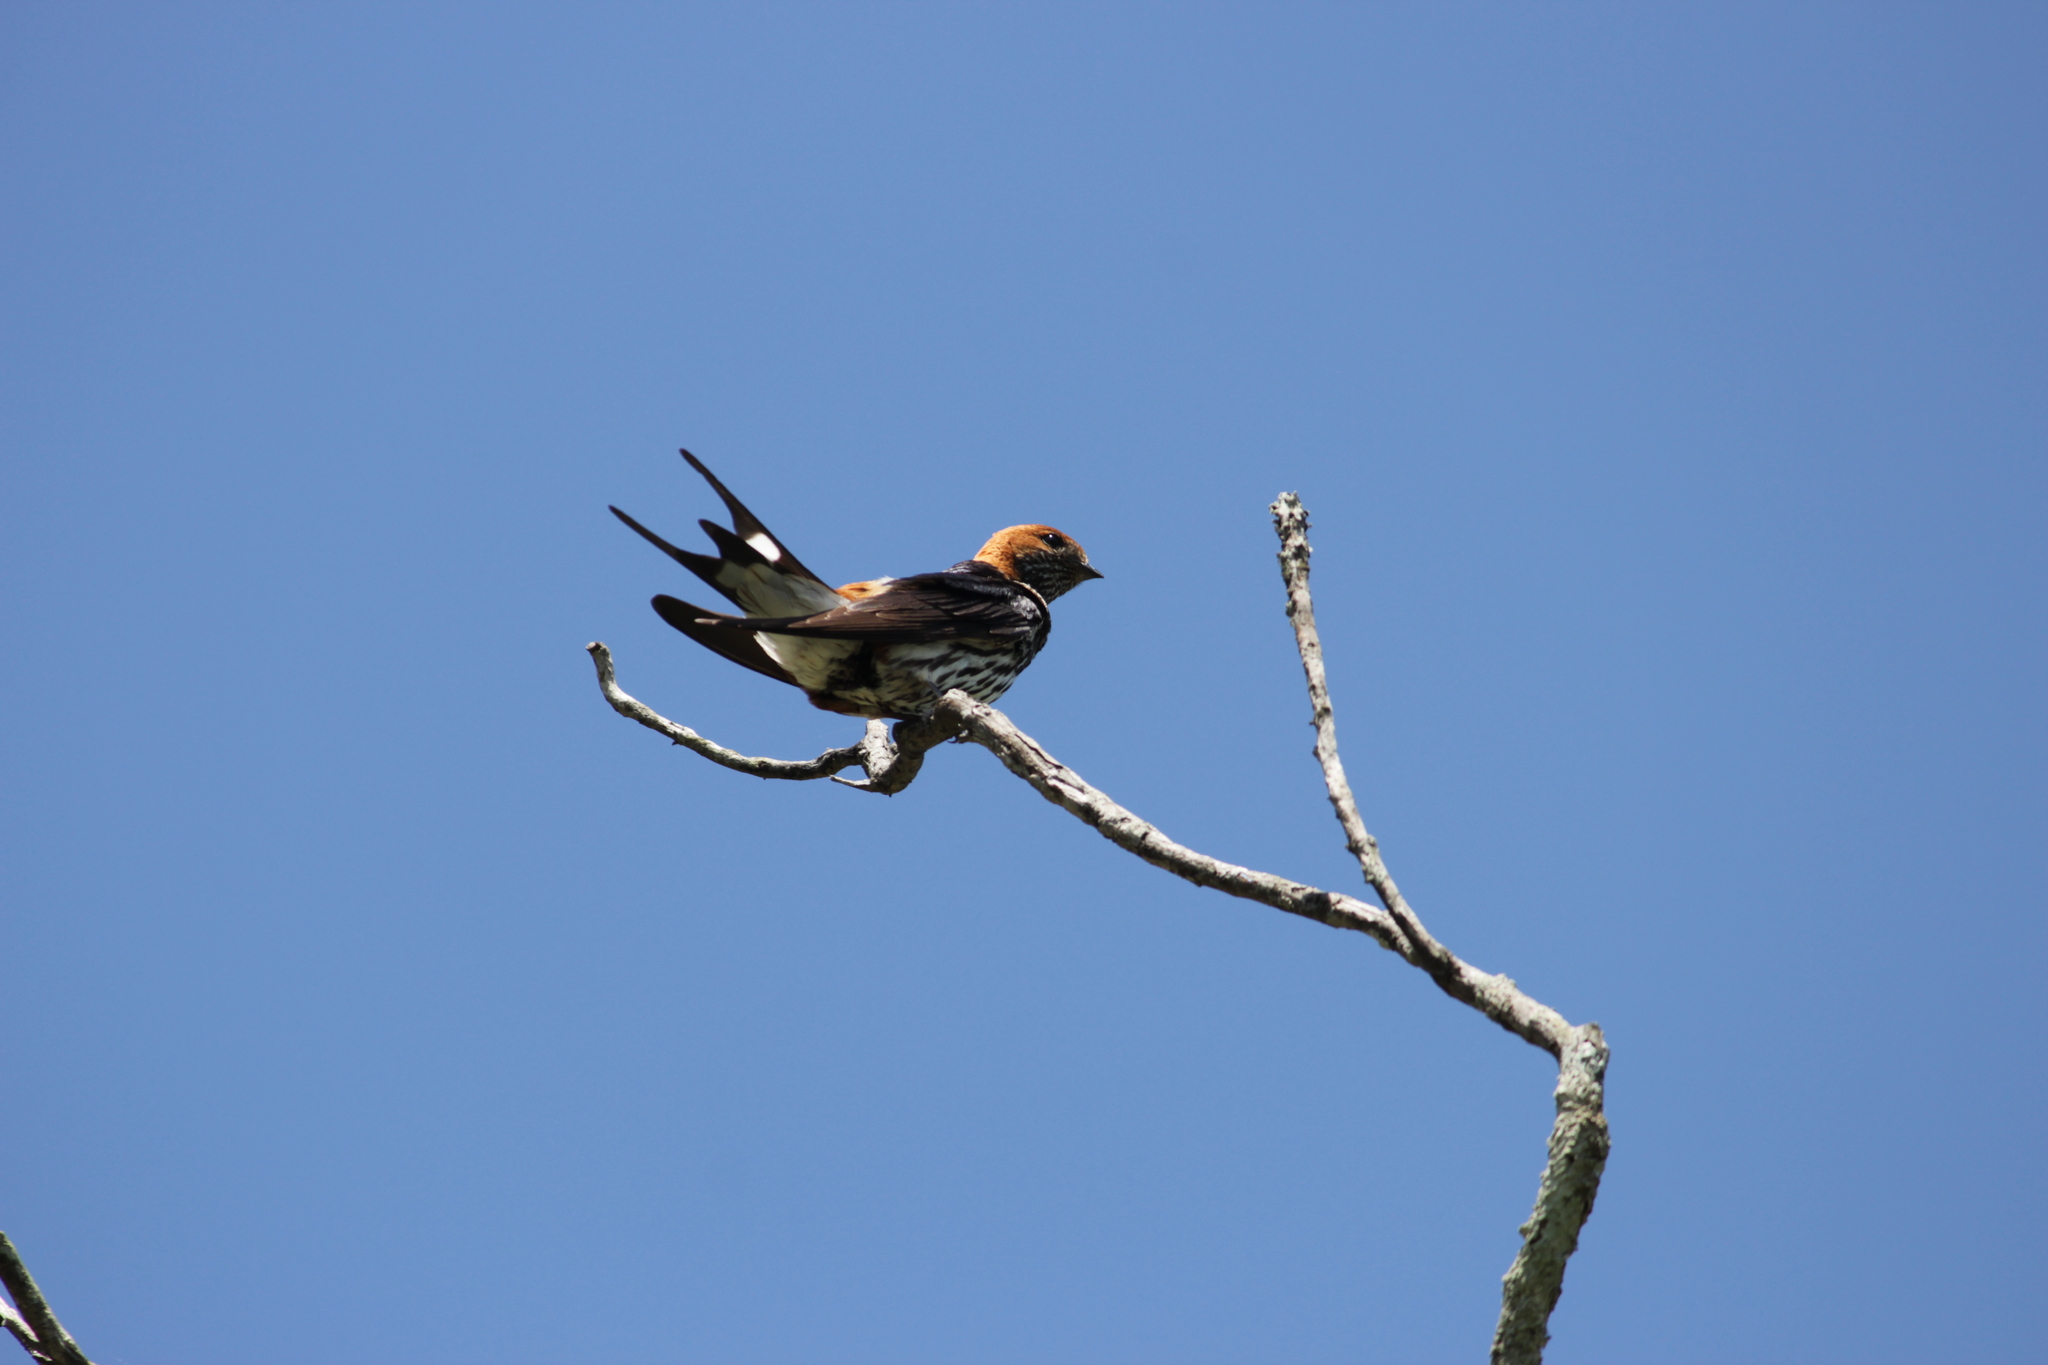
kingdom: Animalia
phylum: Chordata
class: Aves
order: Passeriformes
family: Hirundinidae
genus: Cecropis
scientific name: Cecropis abyssinica
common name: Lesser striped-swallow
